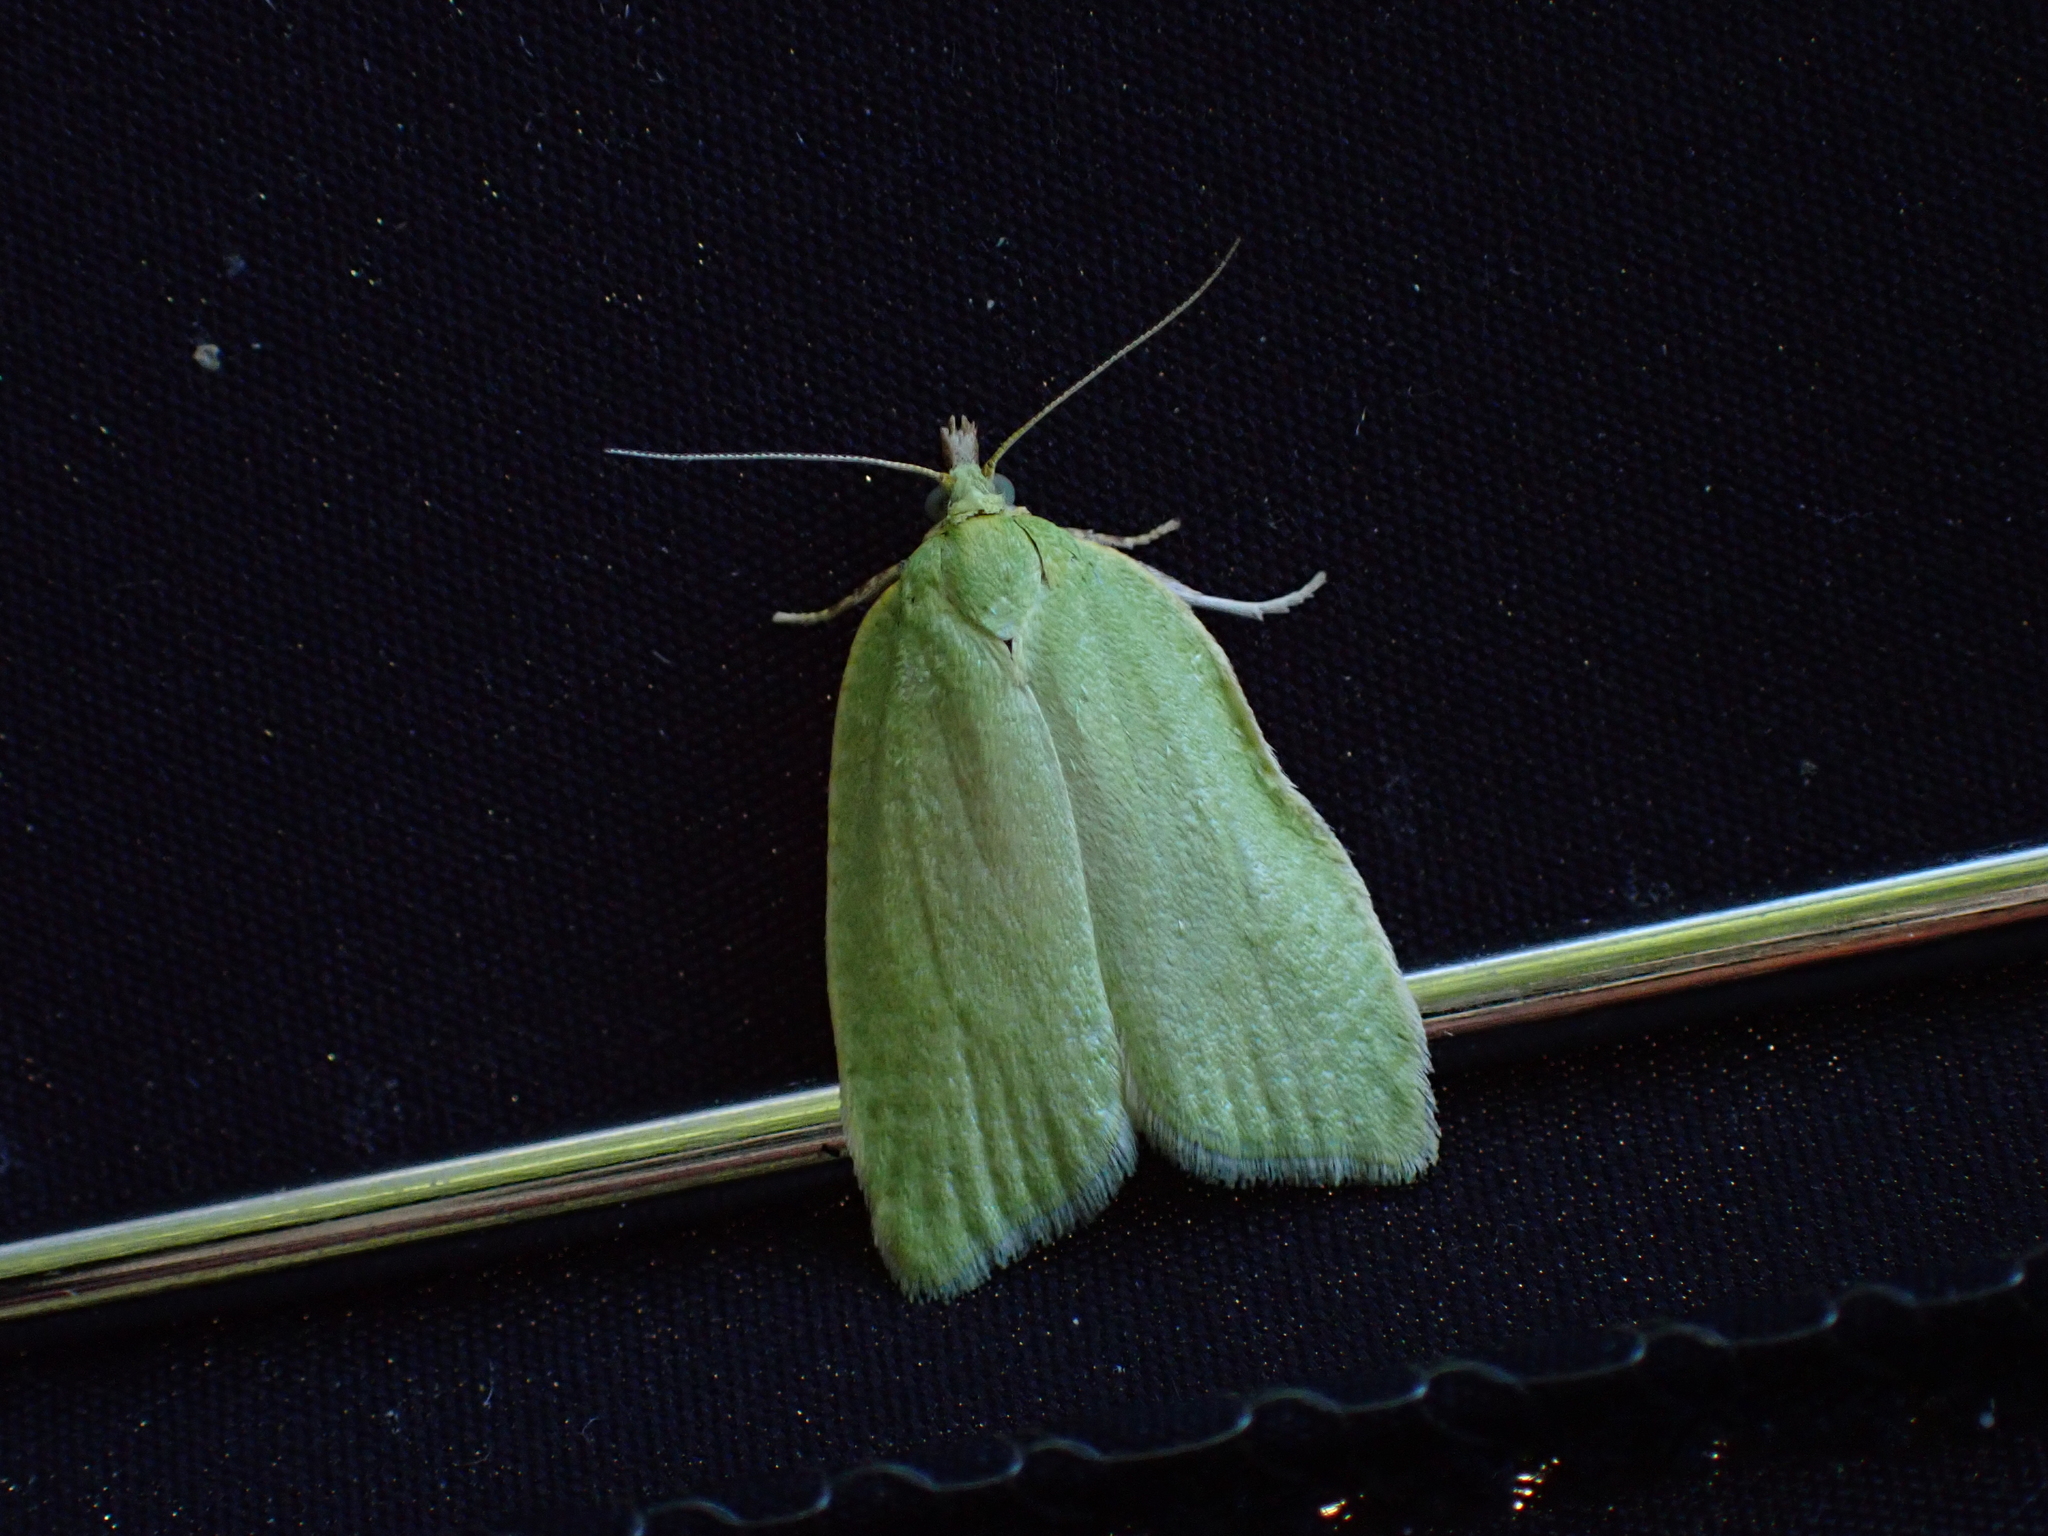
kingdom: Animalia
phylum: Arthropoda
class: Insecta
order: Lepidoptera
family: Tortricidae
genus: Tortrix
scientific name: Tortrix viridana
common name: Green oak tortrix
